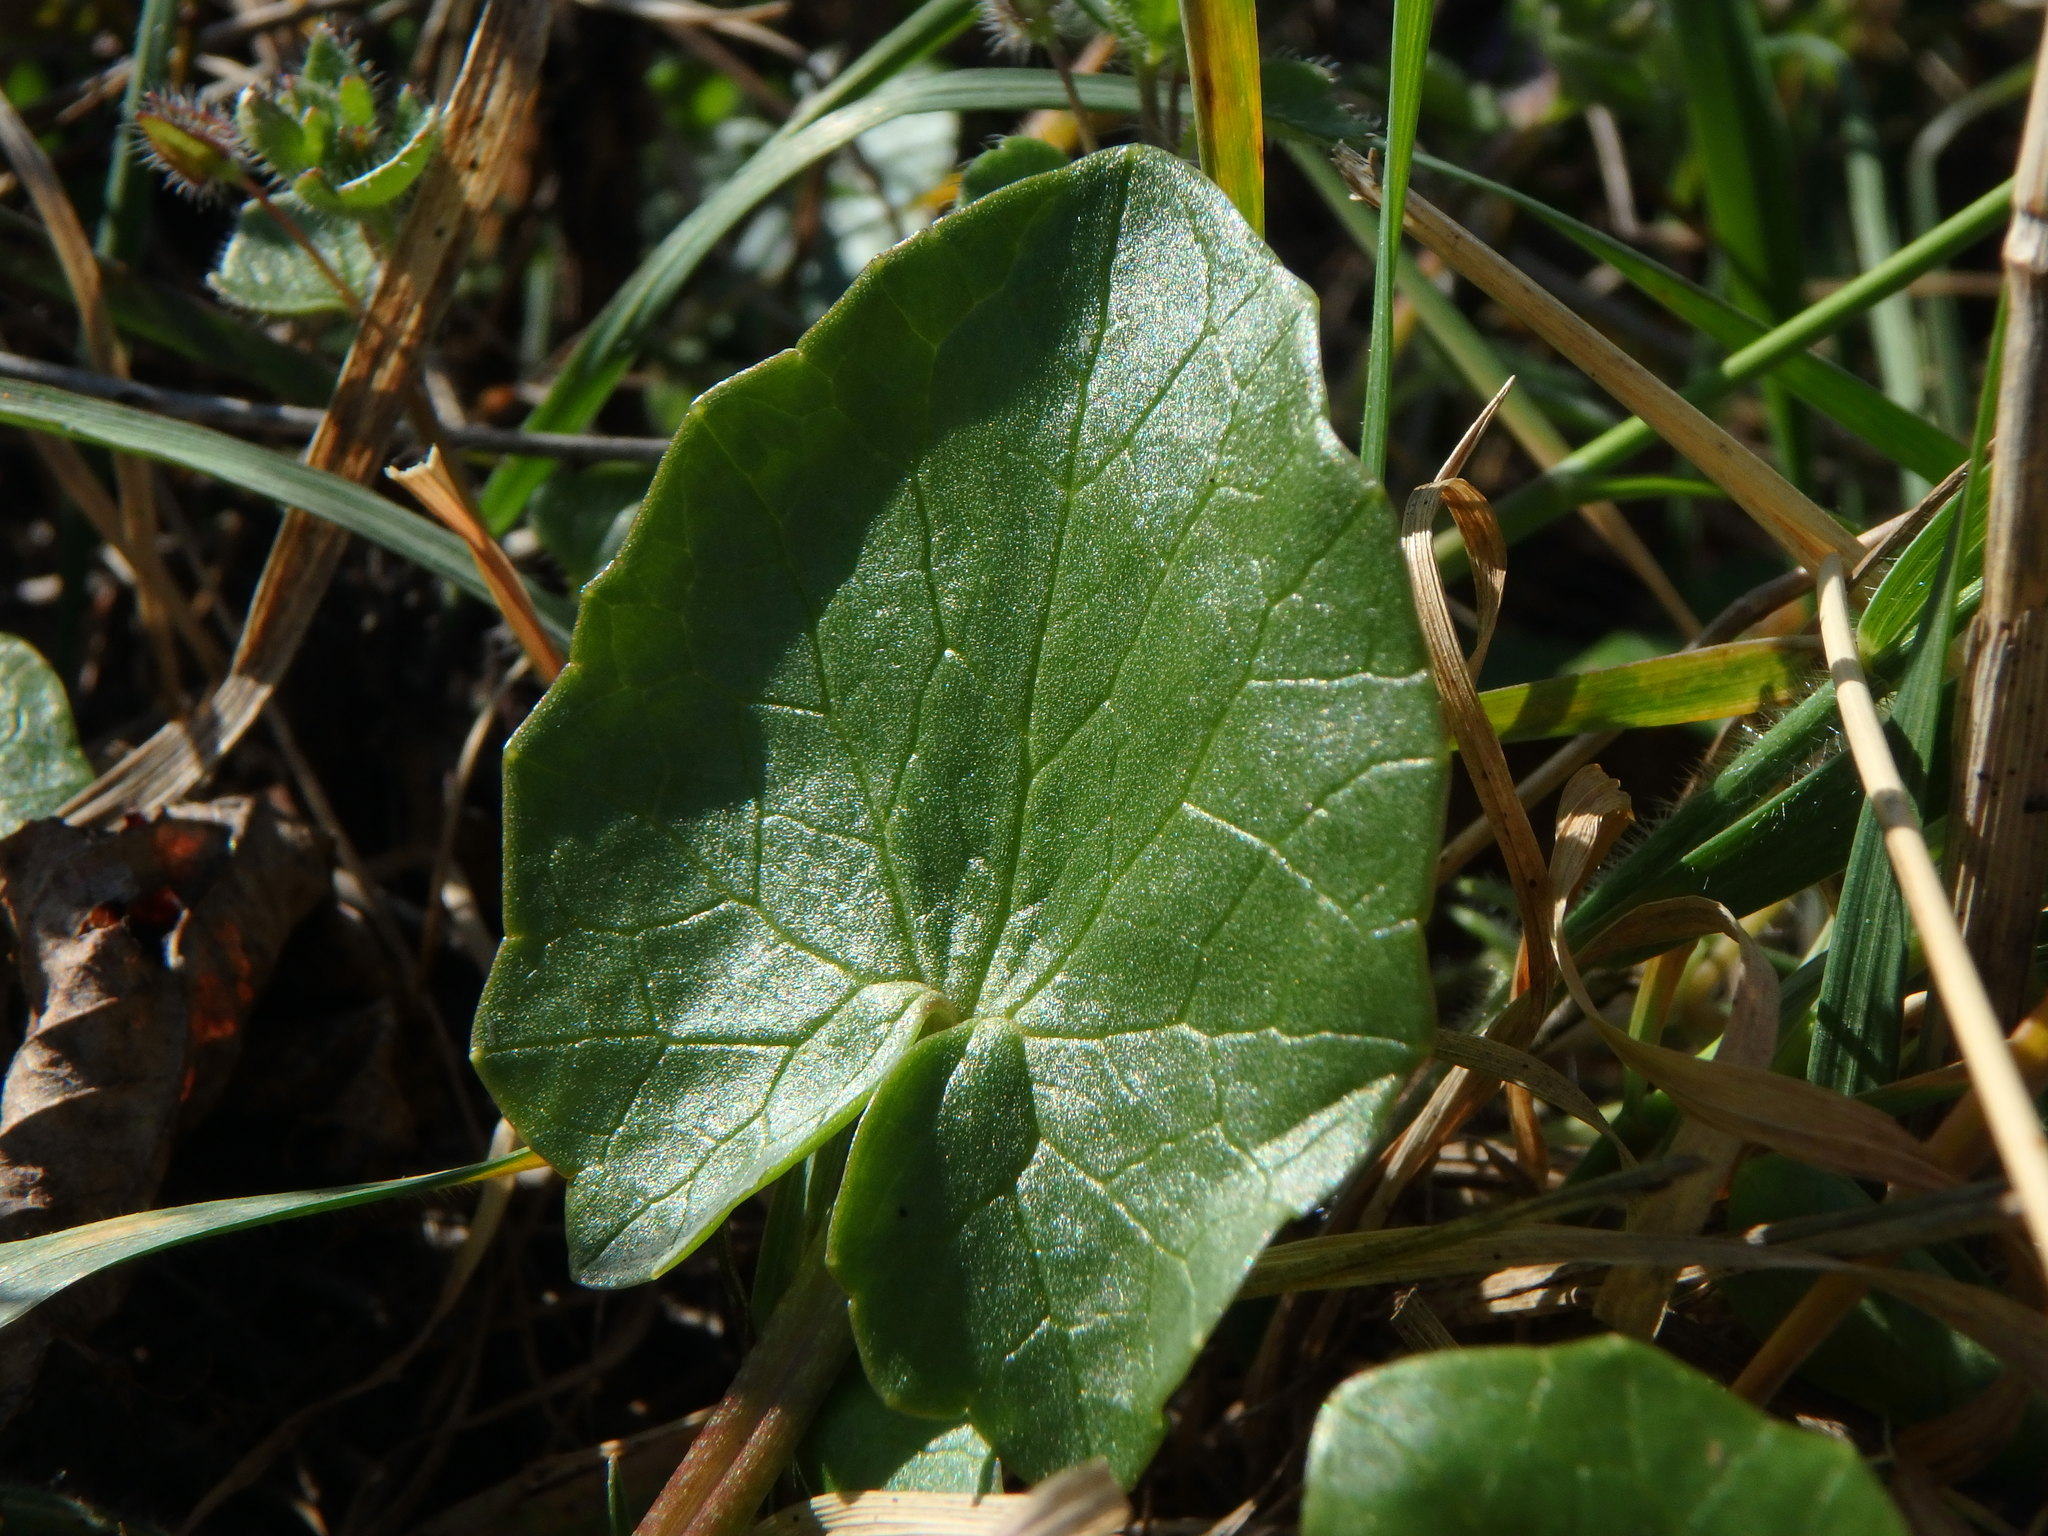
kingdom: Plantae
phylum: Tracheophyta
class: Magnoliopsida
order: Ranunculales
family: Ranunculaceae
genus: Ficaria
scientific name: Ficaria verna
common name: Lesser celandine
